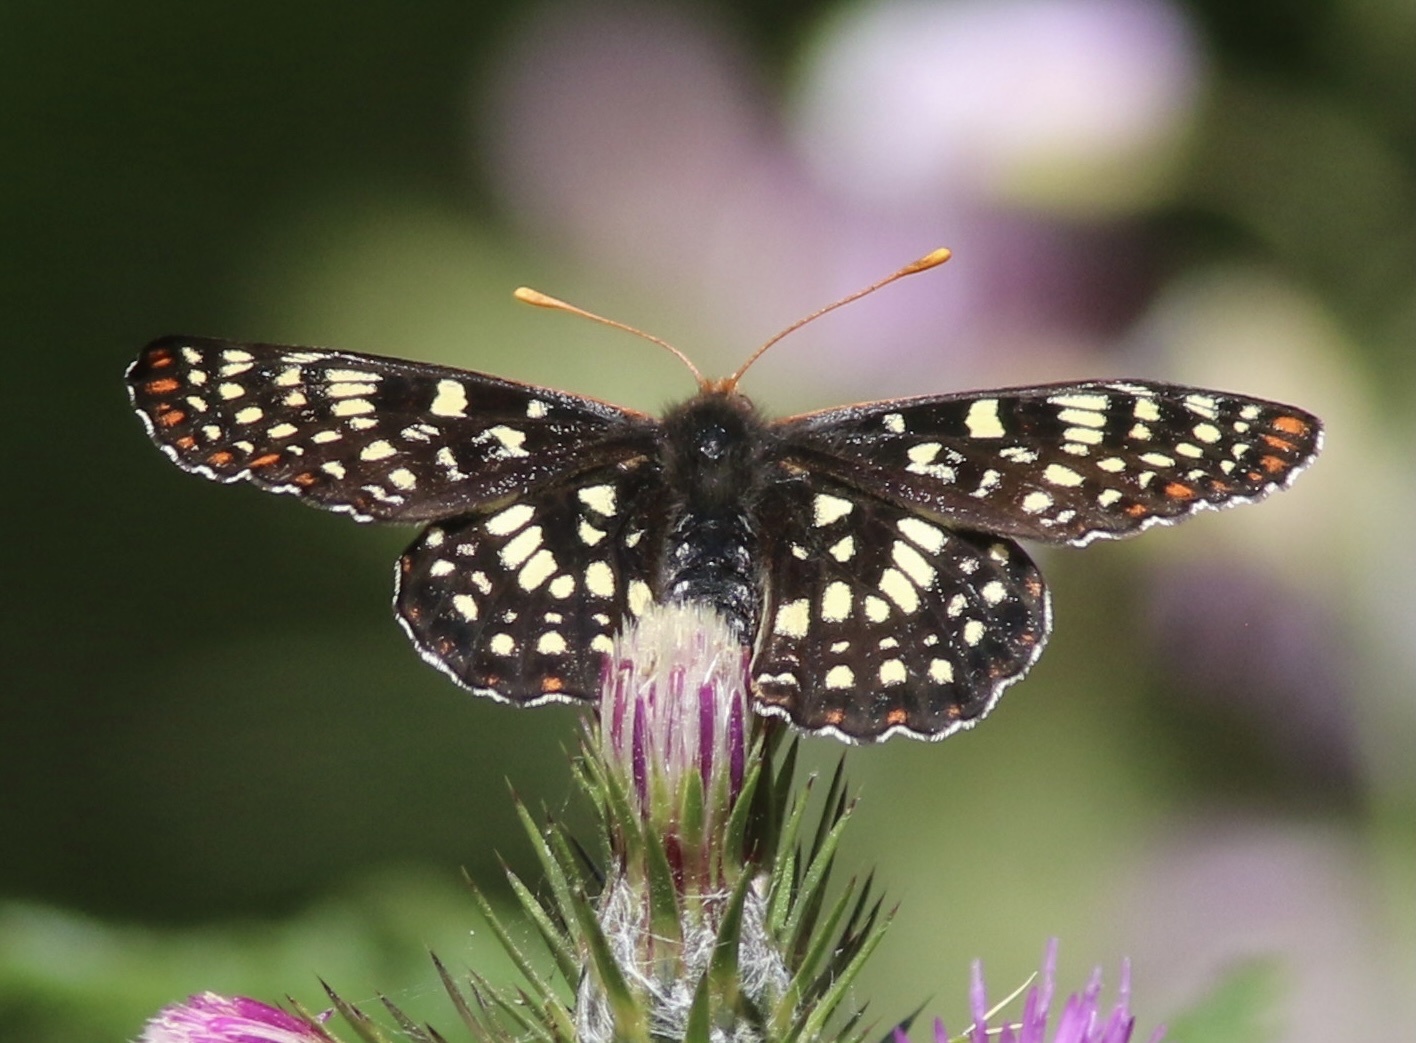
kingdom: Animalia
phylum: Arthropoda
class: Insecta
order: Lepidoptera
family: Nymphalidae
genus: Occidryas
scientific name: Occidryas chalcedona
